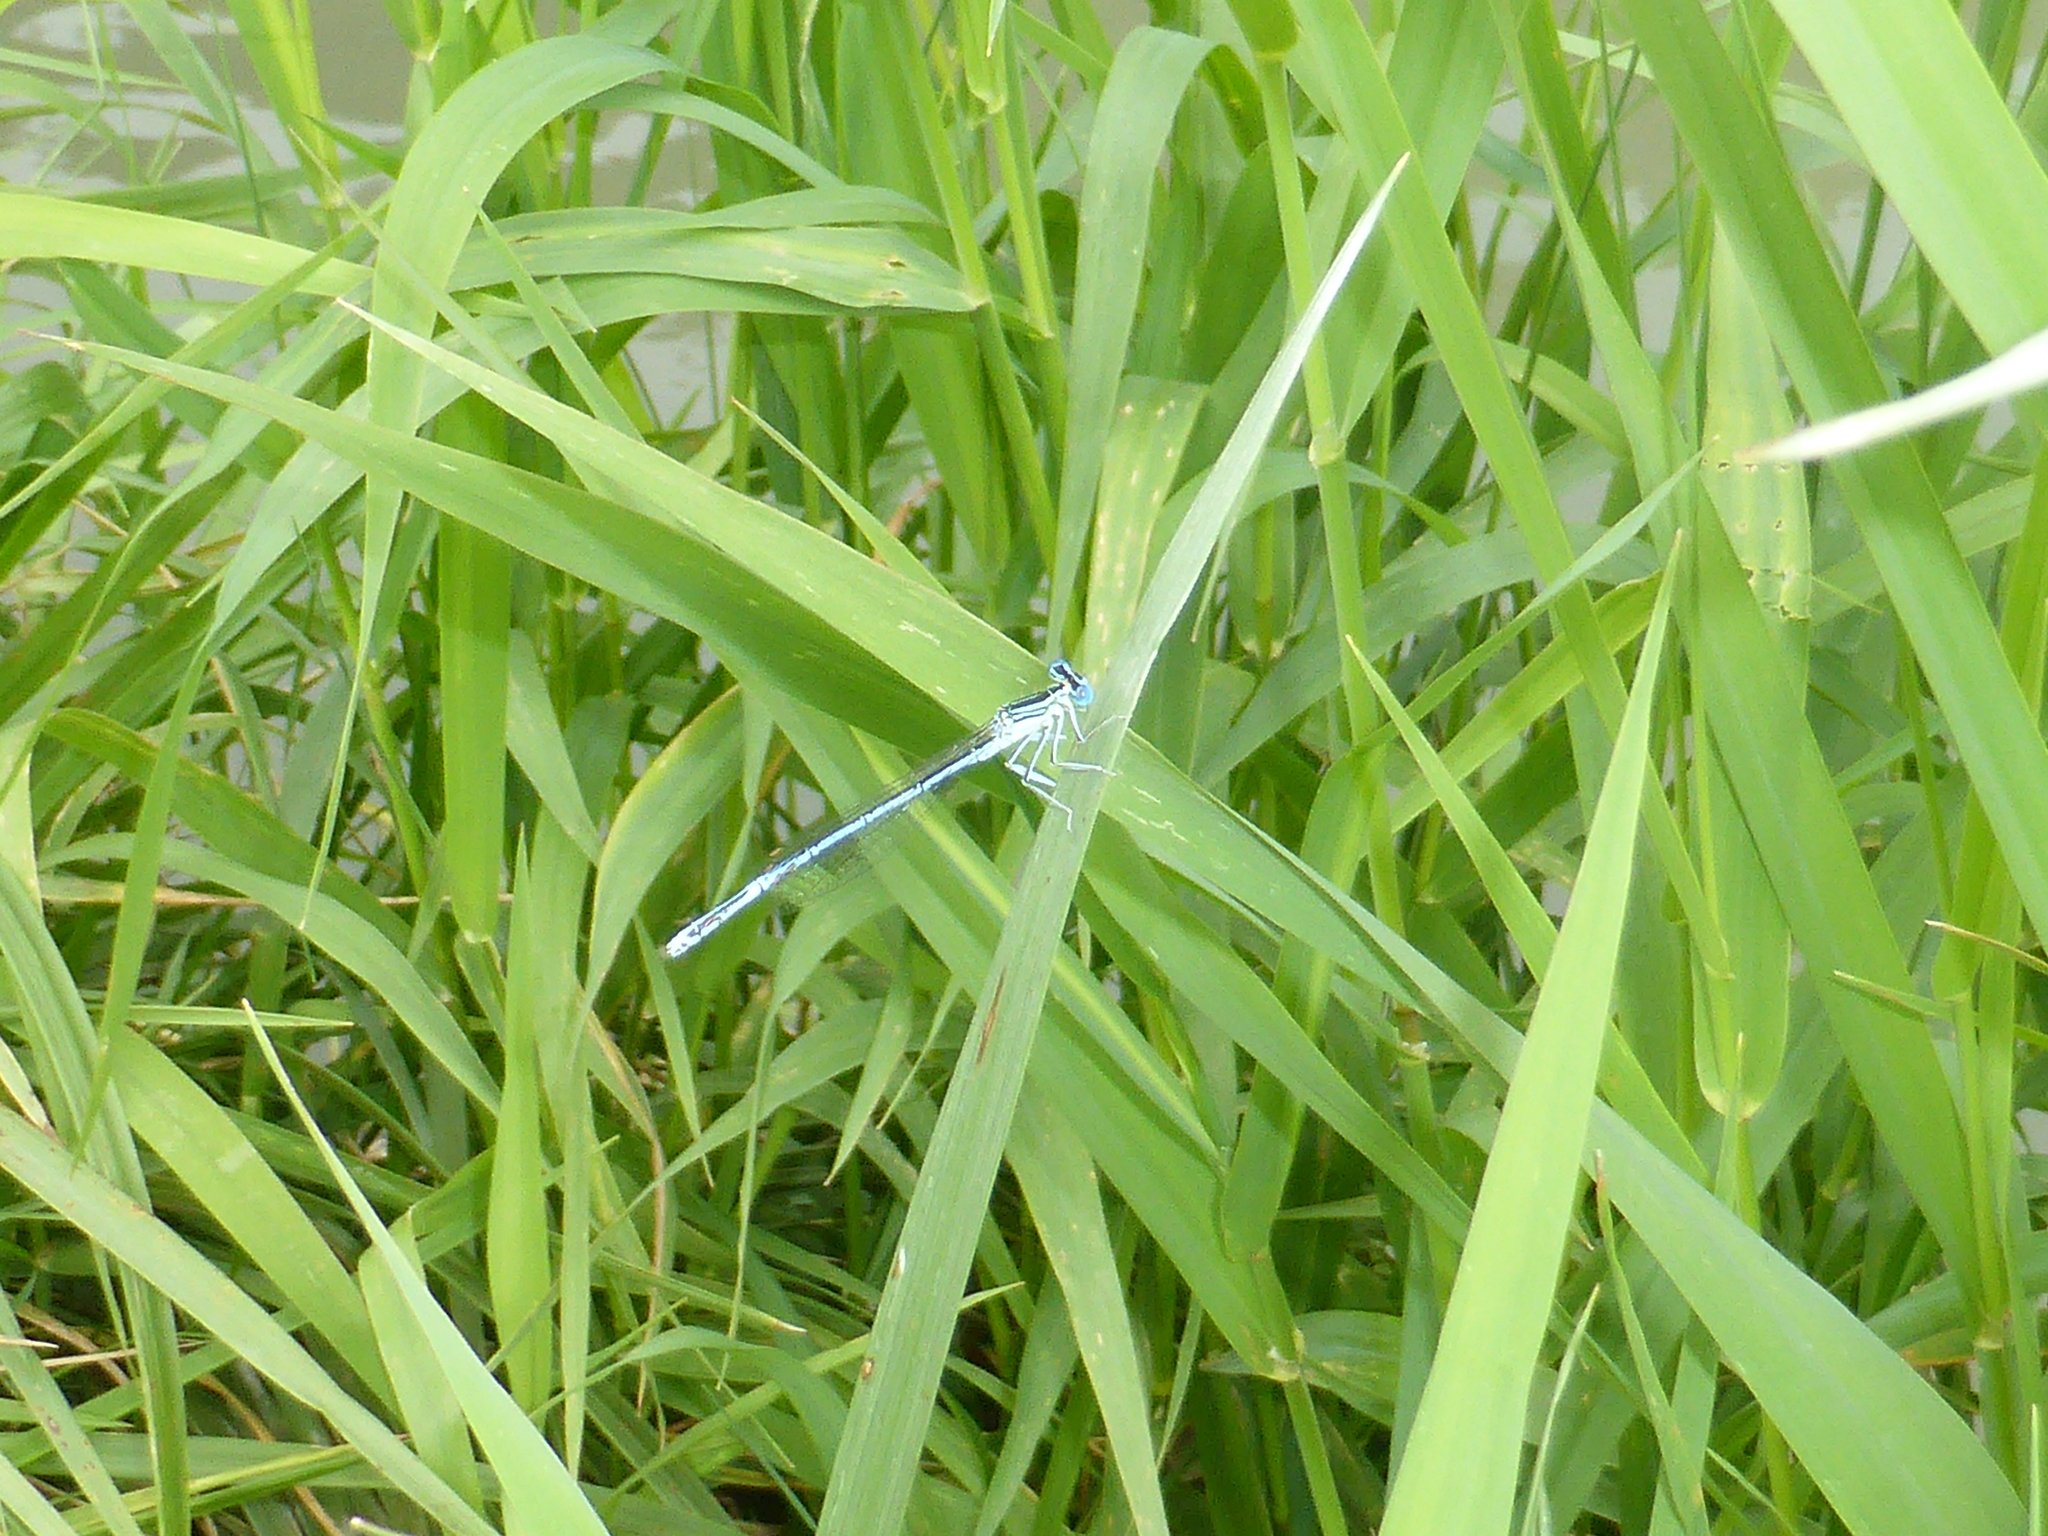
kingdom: Animalia
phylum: Arthropoda
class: Insecta
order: Odonata
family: Platycnemididae
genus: Platycnemis
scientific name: Platycnemis pennipes
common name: White-legged damselfly
